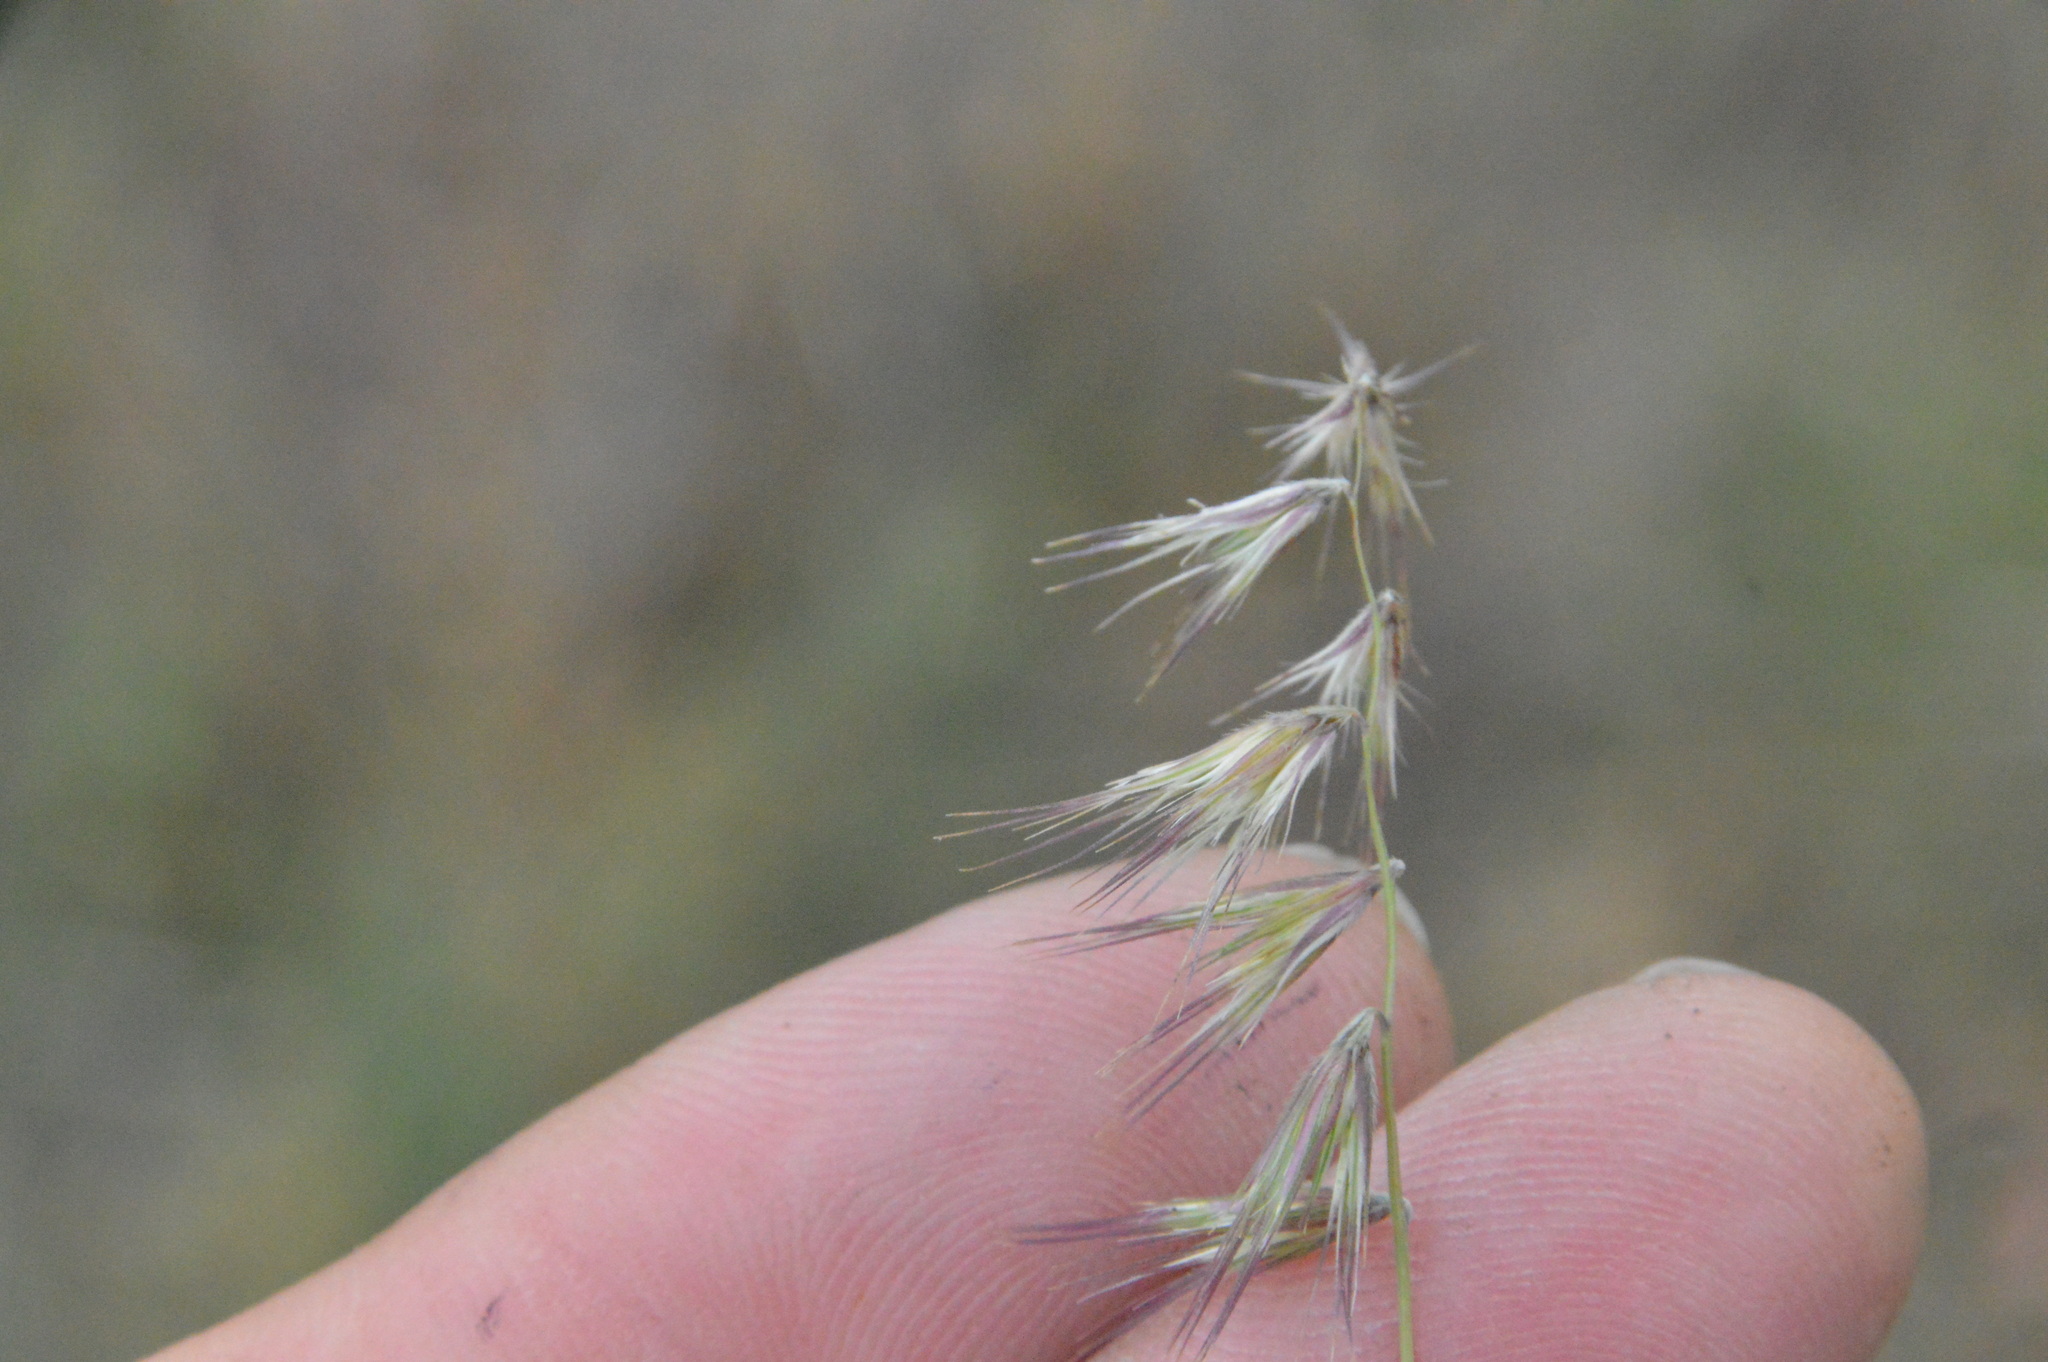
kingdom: Plantae
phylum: Tracheophyta
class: Liliopsida
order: Poales
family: Poaceae
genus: Bouteloua
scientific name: Bouteloua rigidiseta
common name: Texas grama
